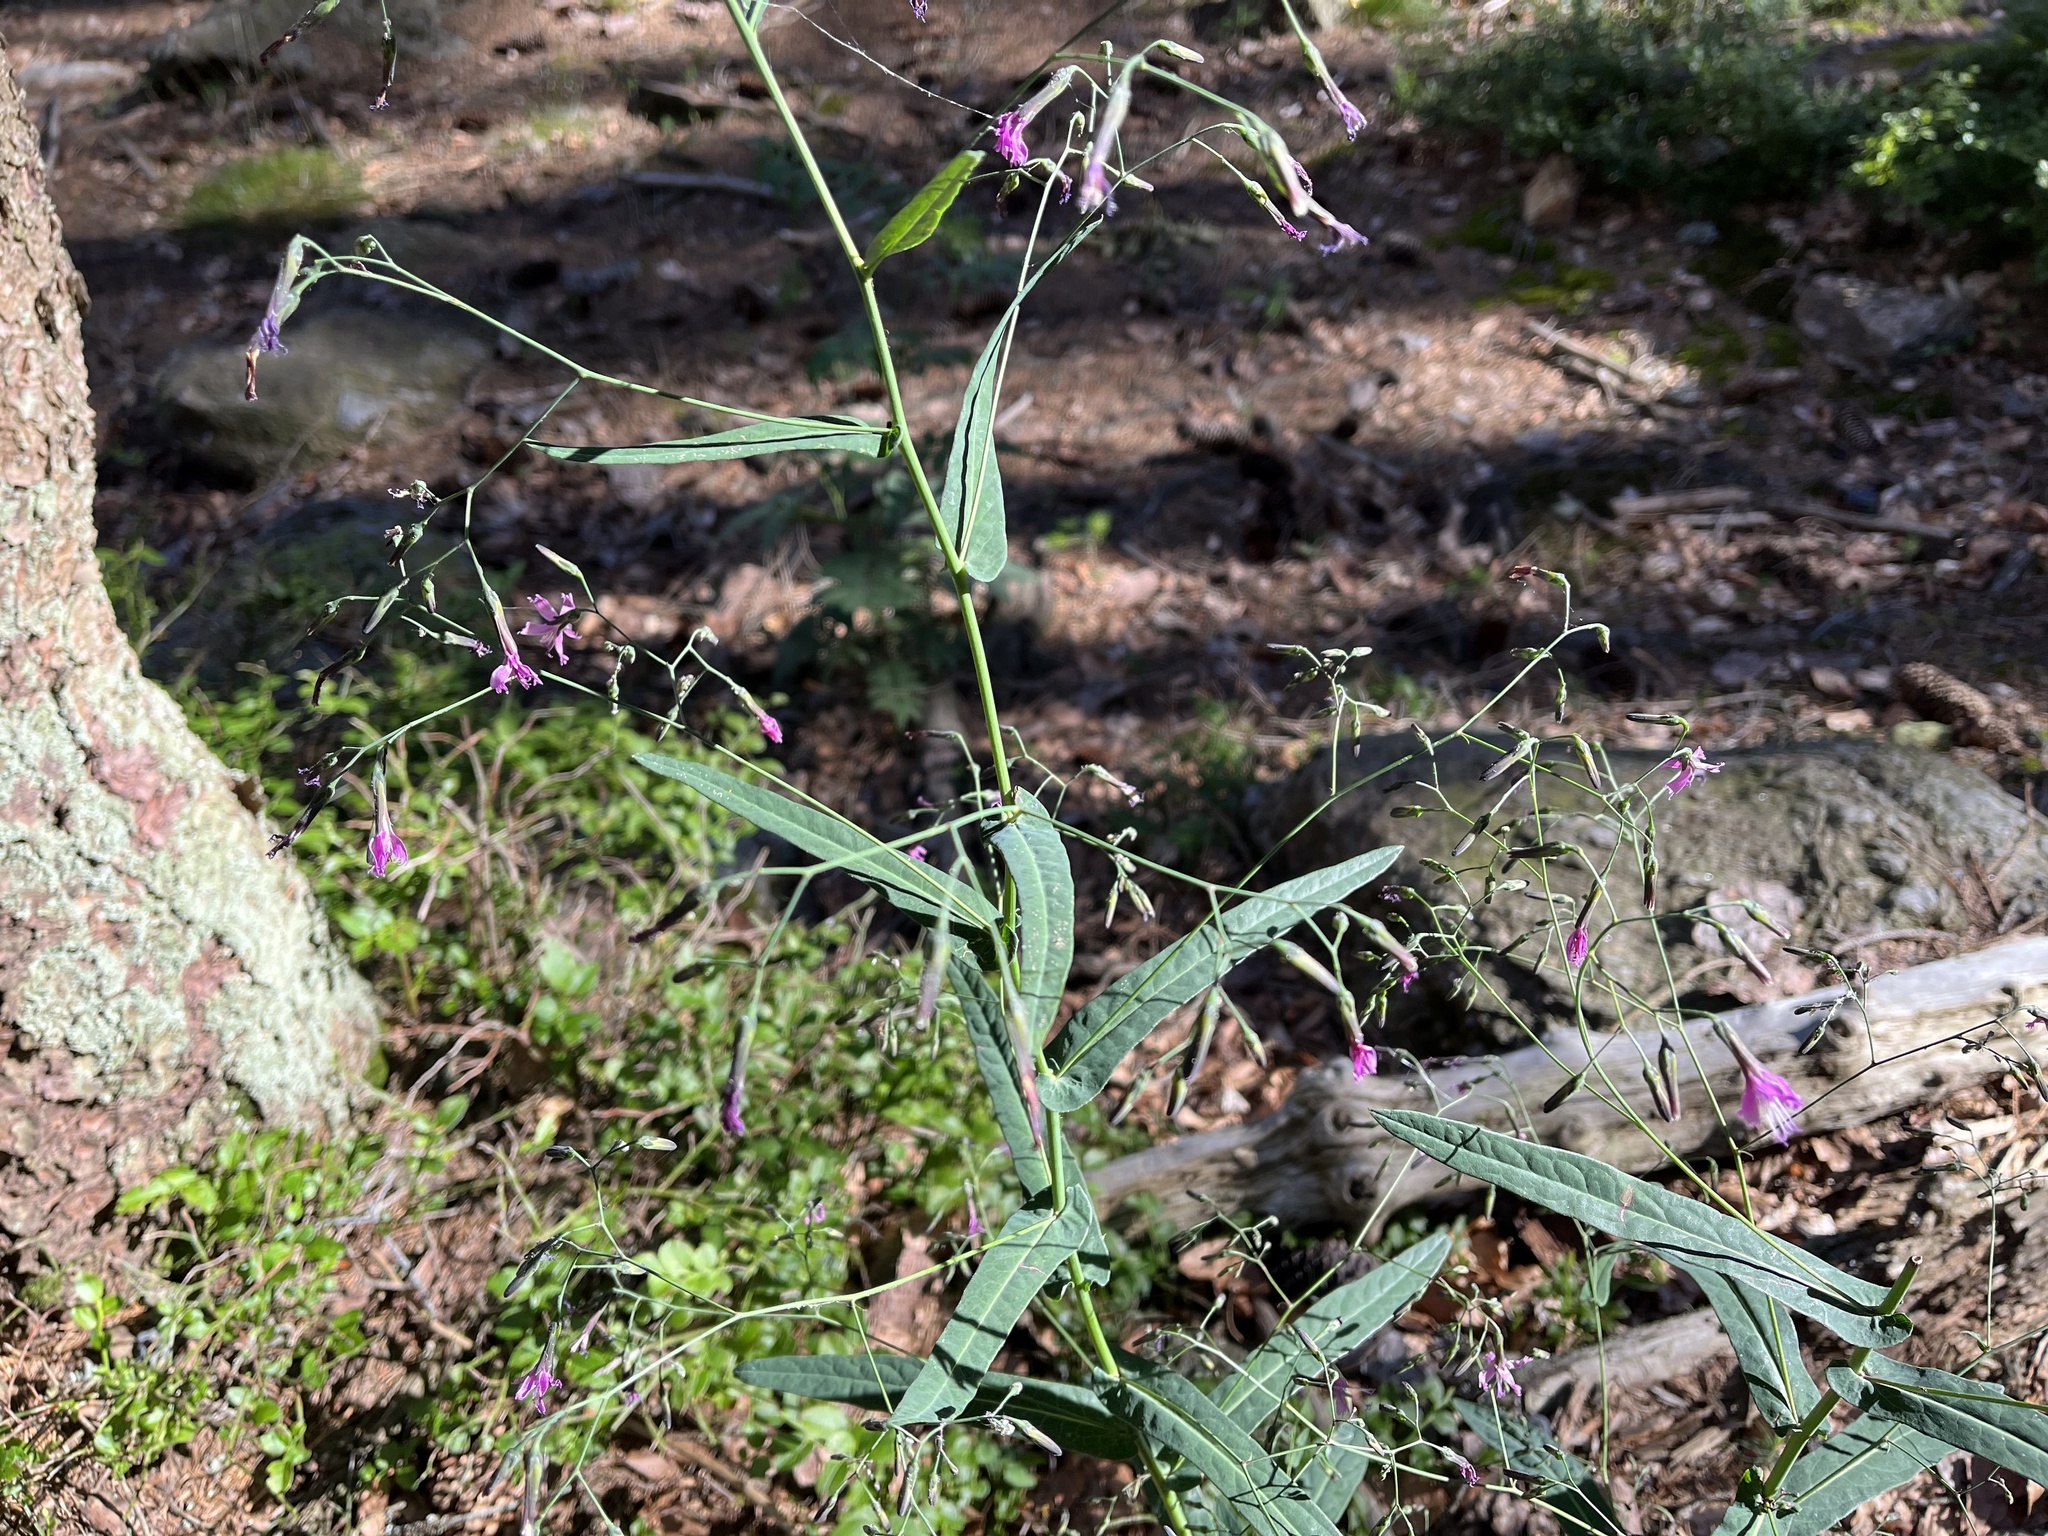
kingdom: Plantae
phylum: Tracheophyta
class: Magnoliopsida
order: Asterales
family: Asteraceae
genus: Prenanthes
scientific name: Prenanthes purpurea
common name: Purple lettuce
